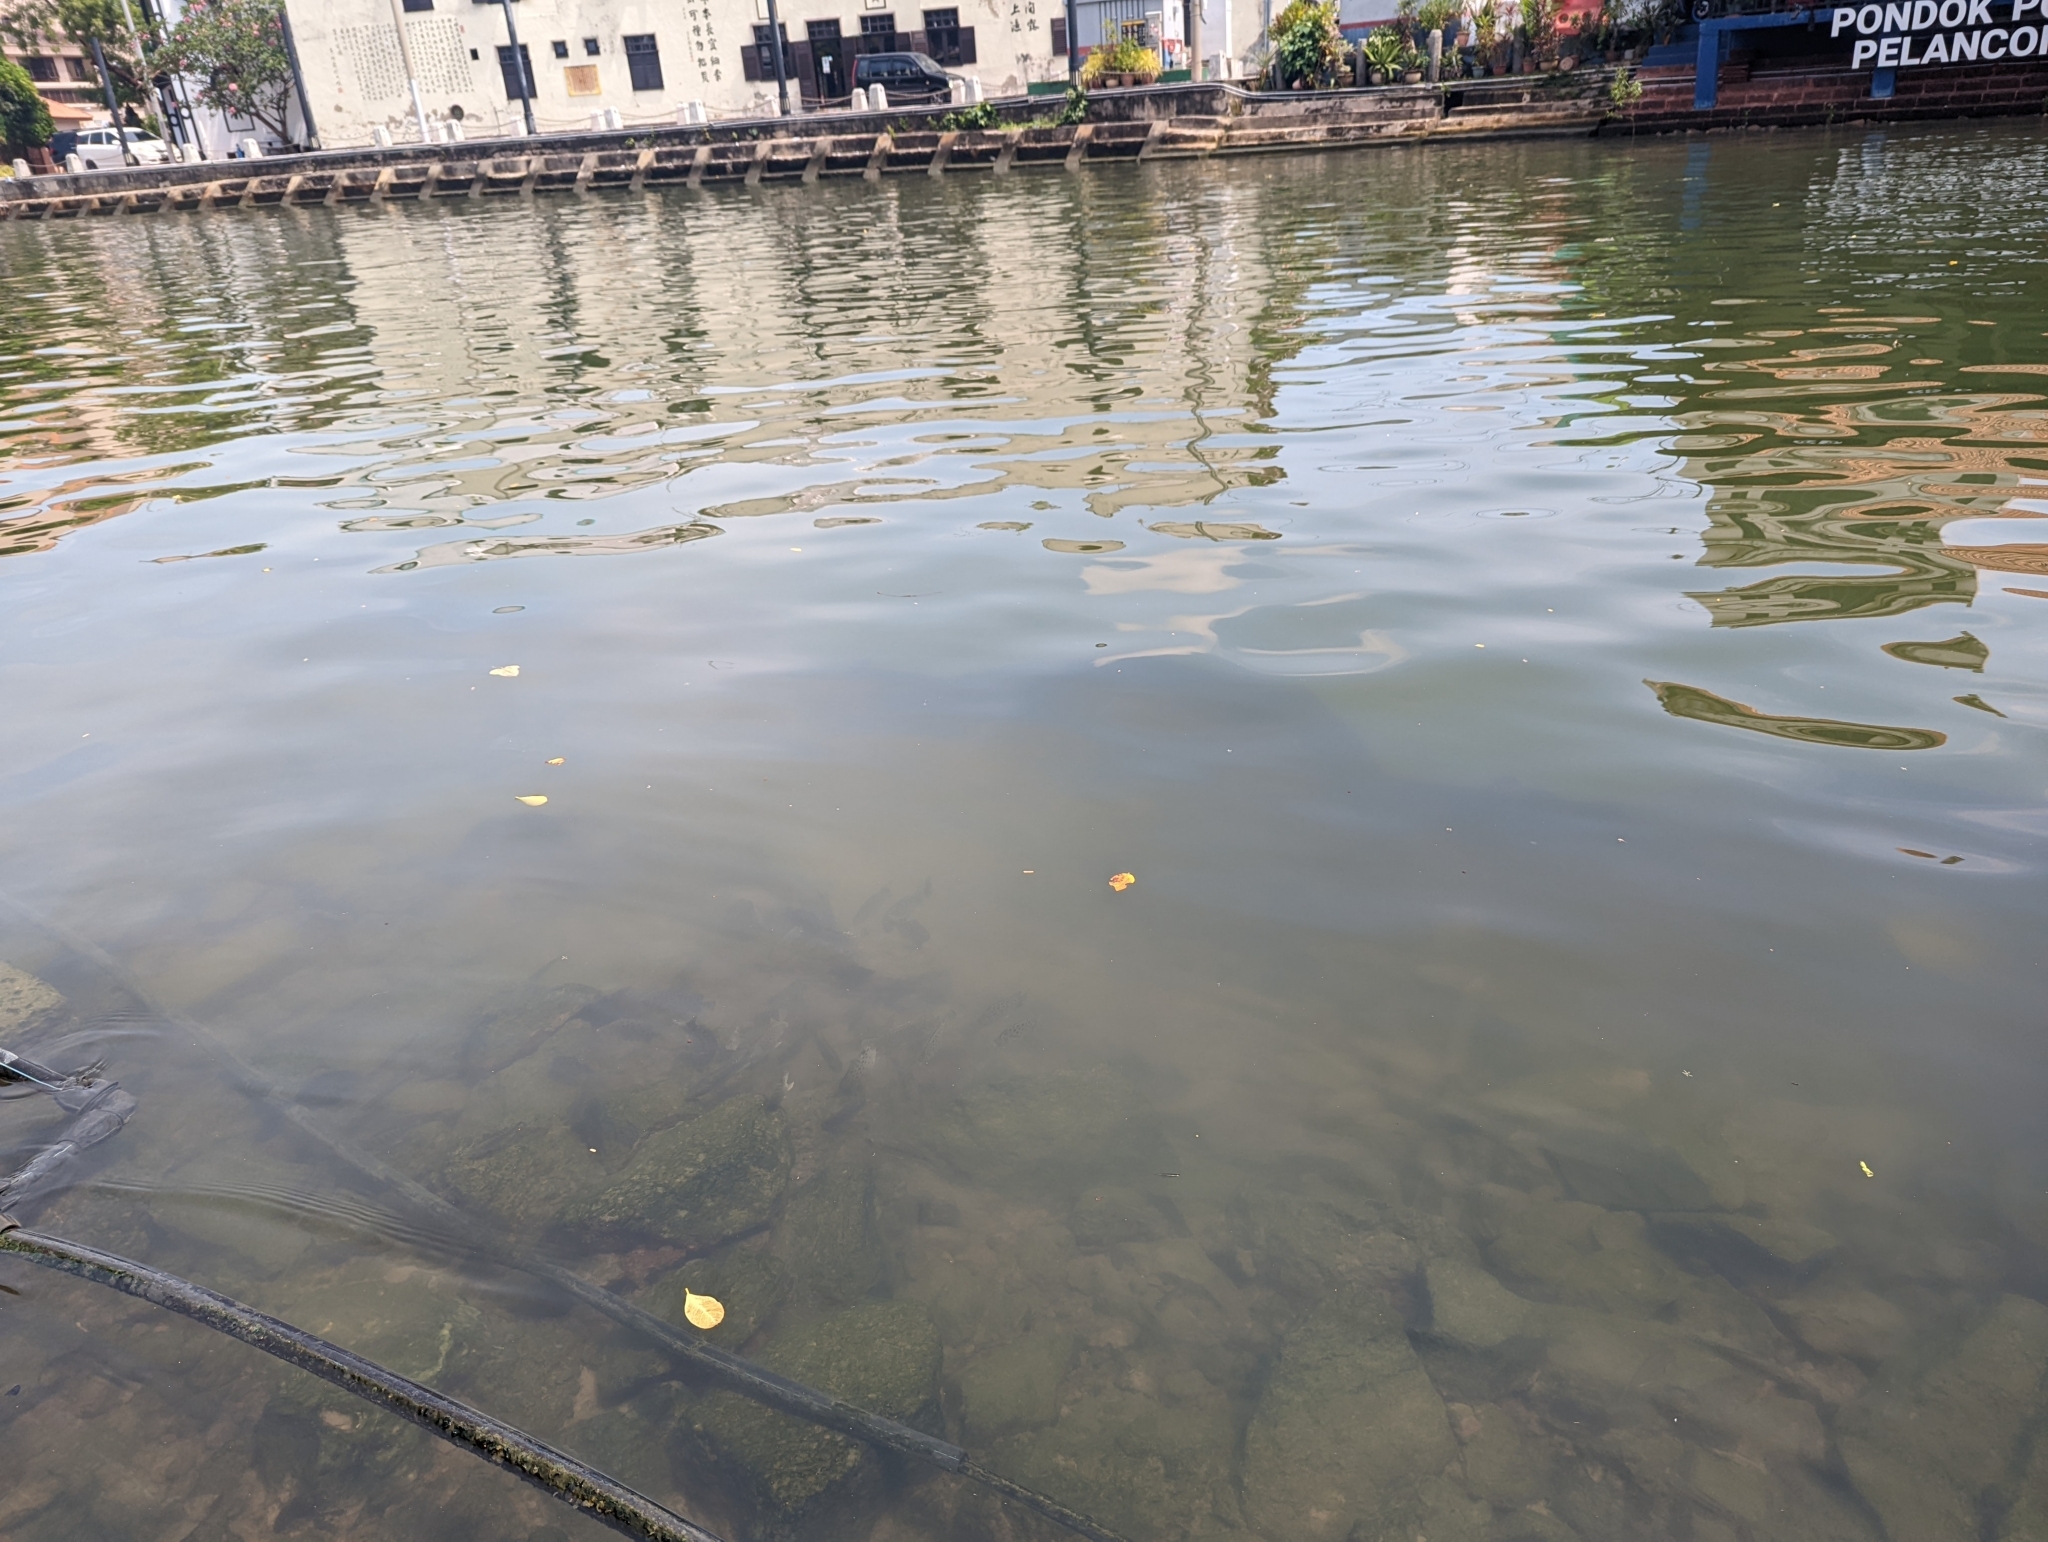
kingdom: Animalia
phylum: Chordata
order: Perciformes
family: Scatophagidae
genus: Scatophagus
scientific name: Scatophagus argus
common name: Spotted scat
